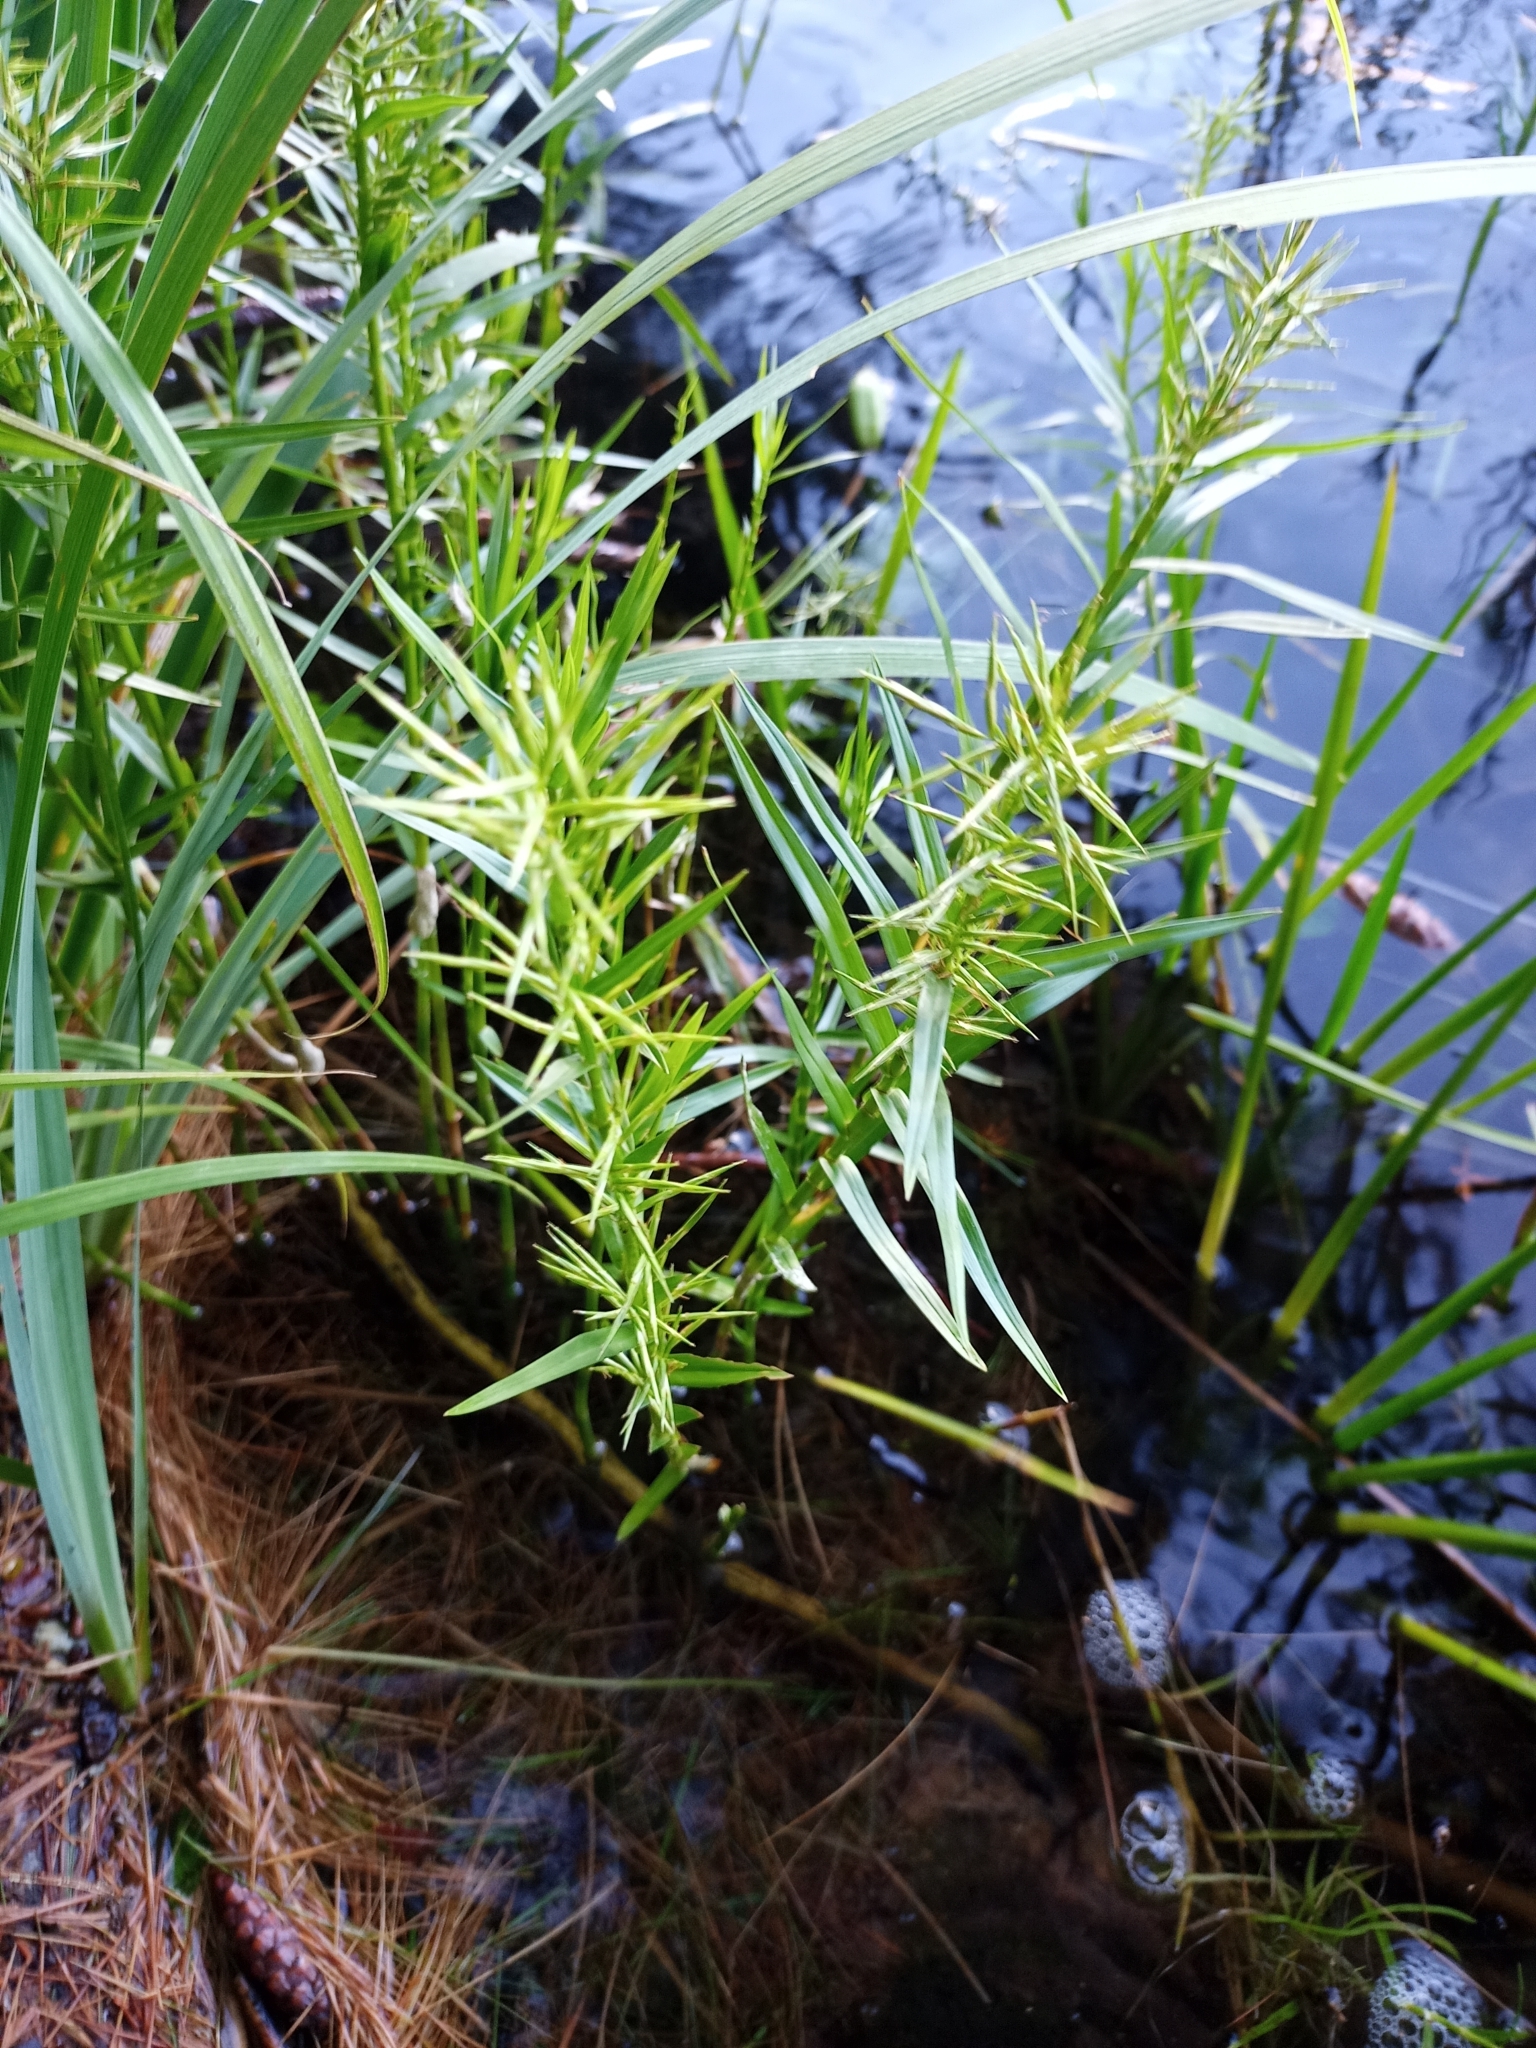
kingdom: Plantae
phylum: Tracheophyta
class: Liliopsida
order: Poales
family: Cyperaceae
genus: Dulichium
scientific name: Dulichium arundinaceum
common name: Three-way sedge
